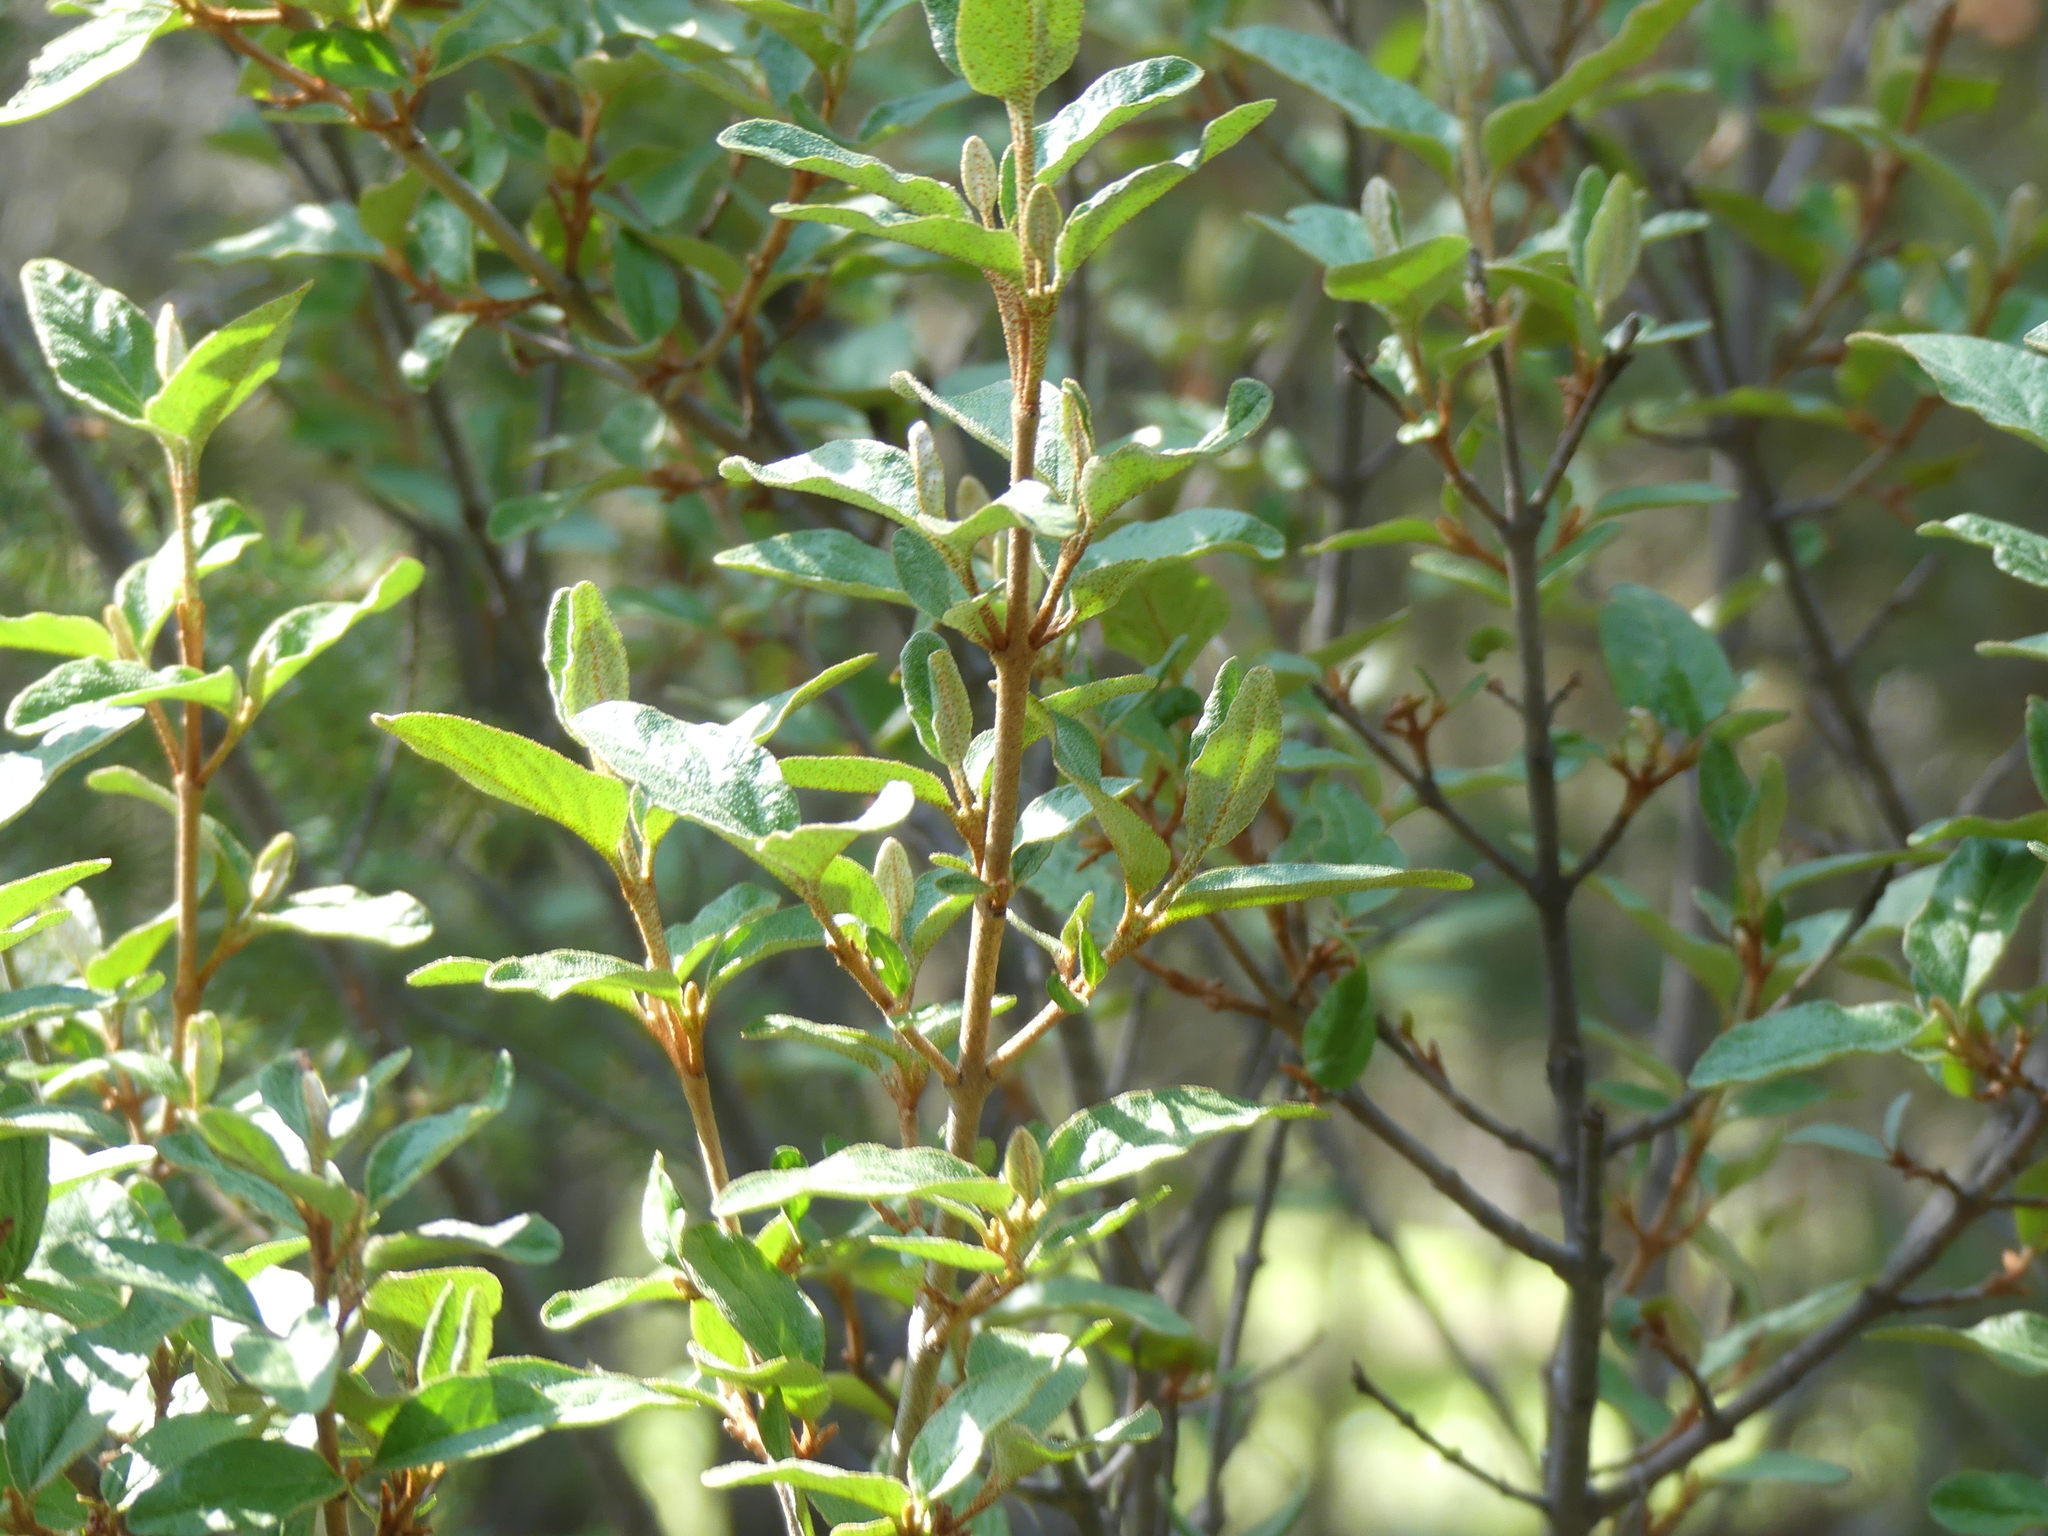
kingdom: Plantae
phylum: Tracheophyta
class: Magnoliopsida
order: Rosales
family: Elaeagnaceae
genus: Shepherdia
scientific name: Shepherdia canadensis
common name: Soapberry
